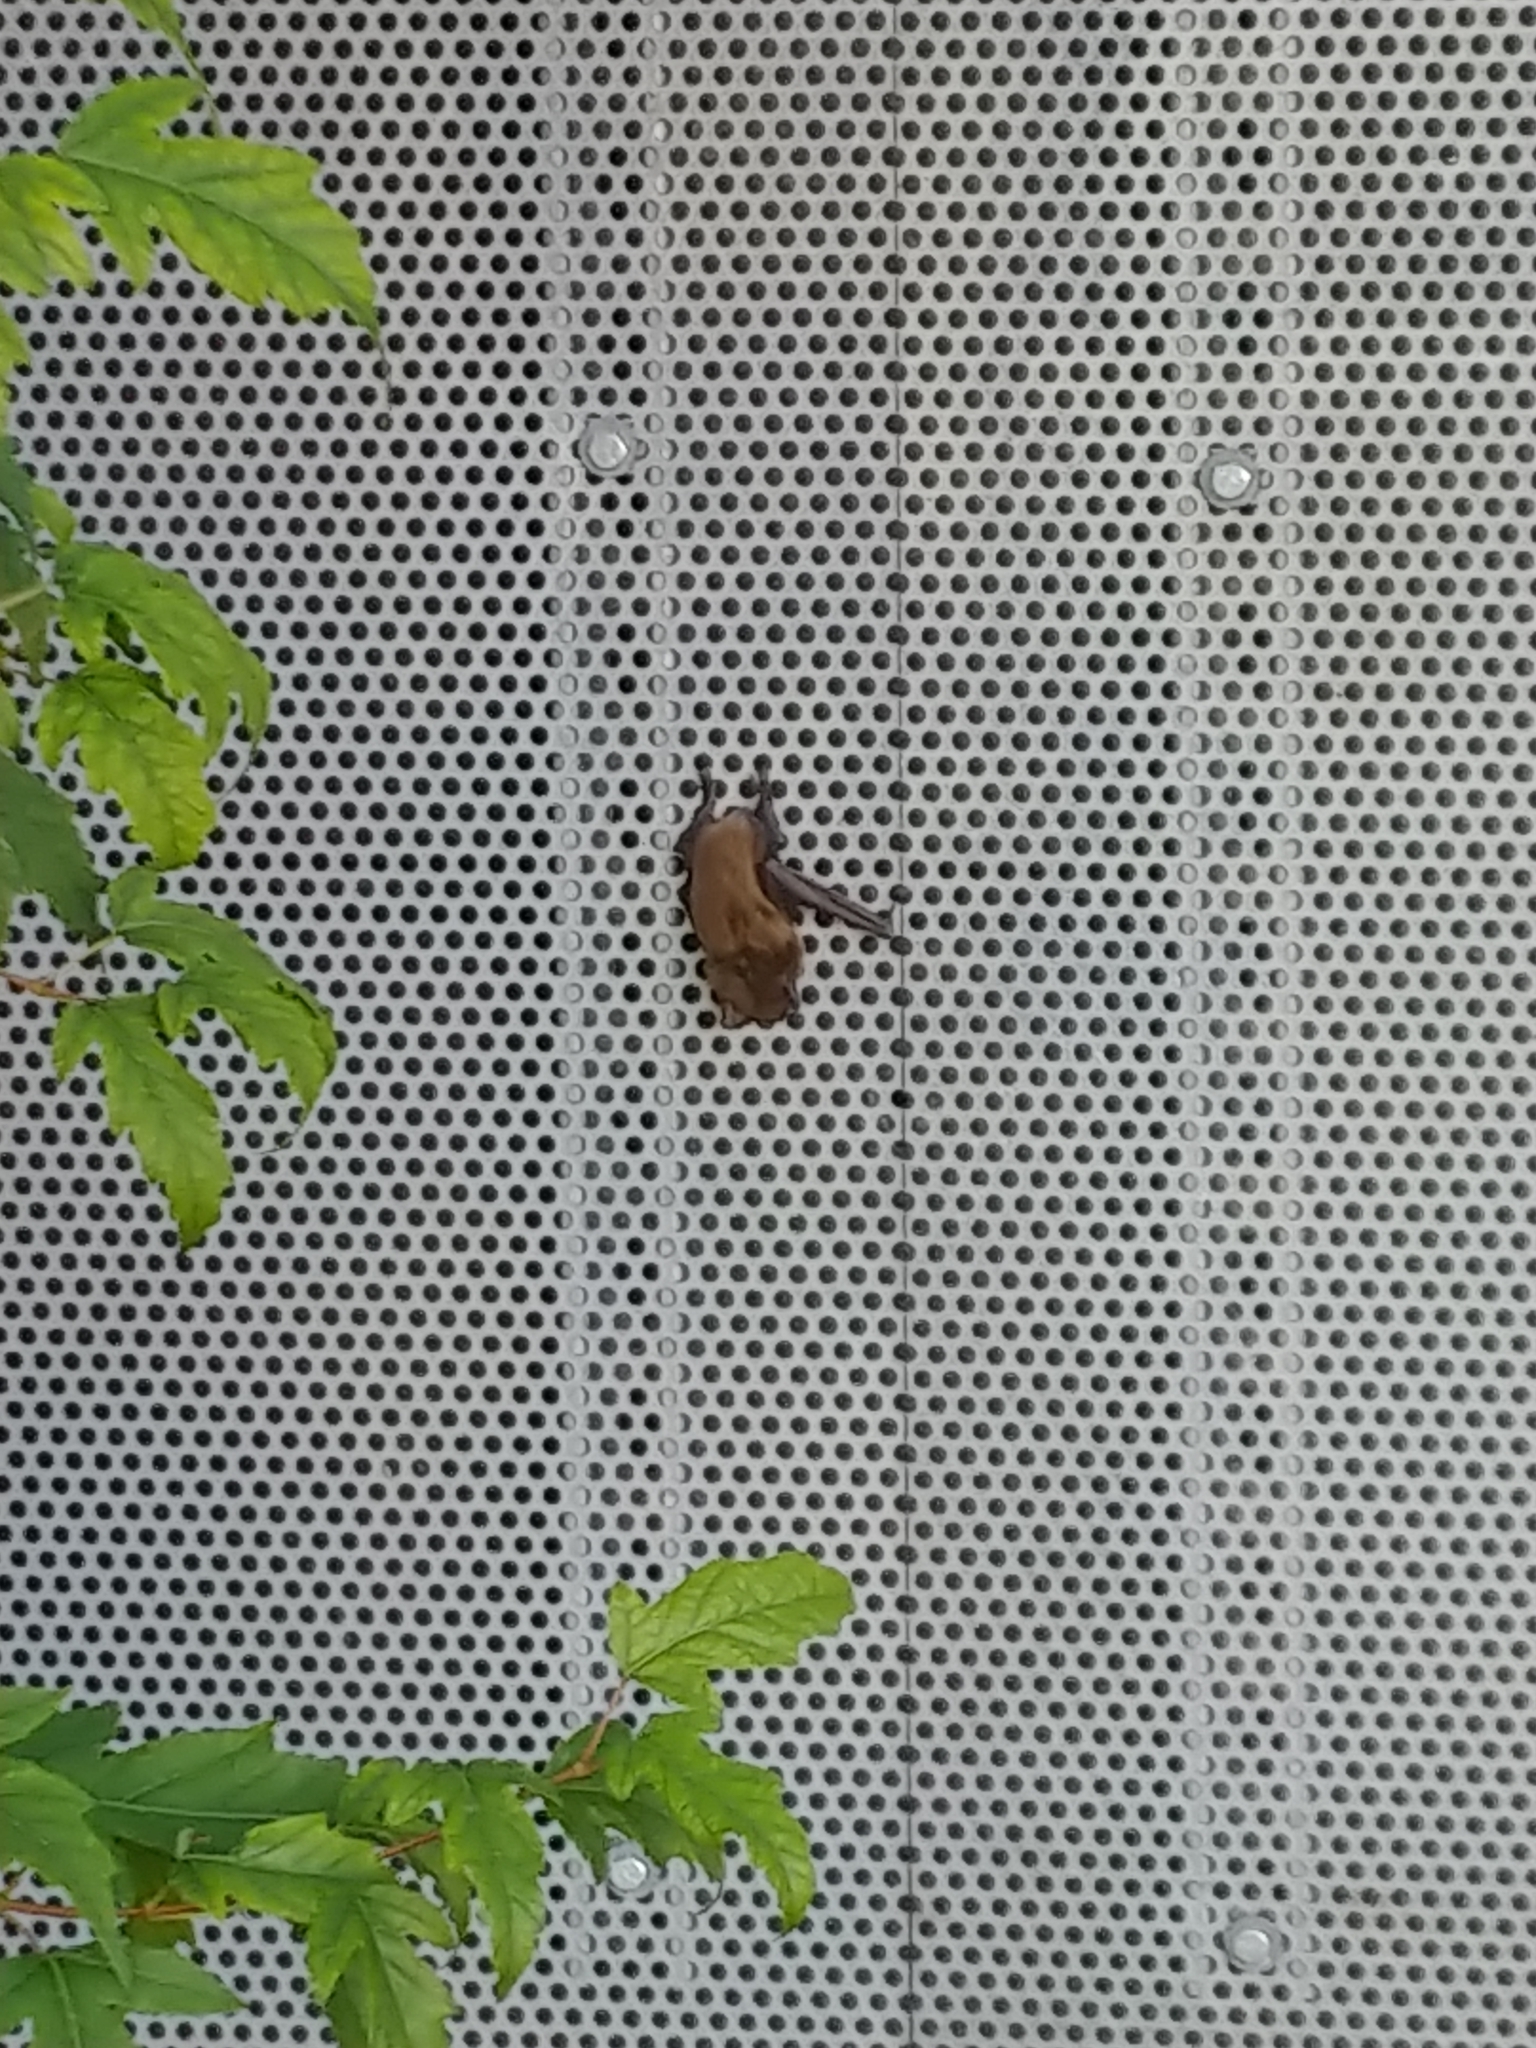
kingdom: Animalia
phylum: Chordata
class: Mammalia
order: Chiroptera
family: Vespertilionidae
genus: Eptesicus
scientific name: Eptesicus fuscus
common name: Big brown bat
